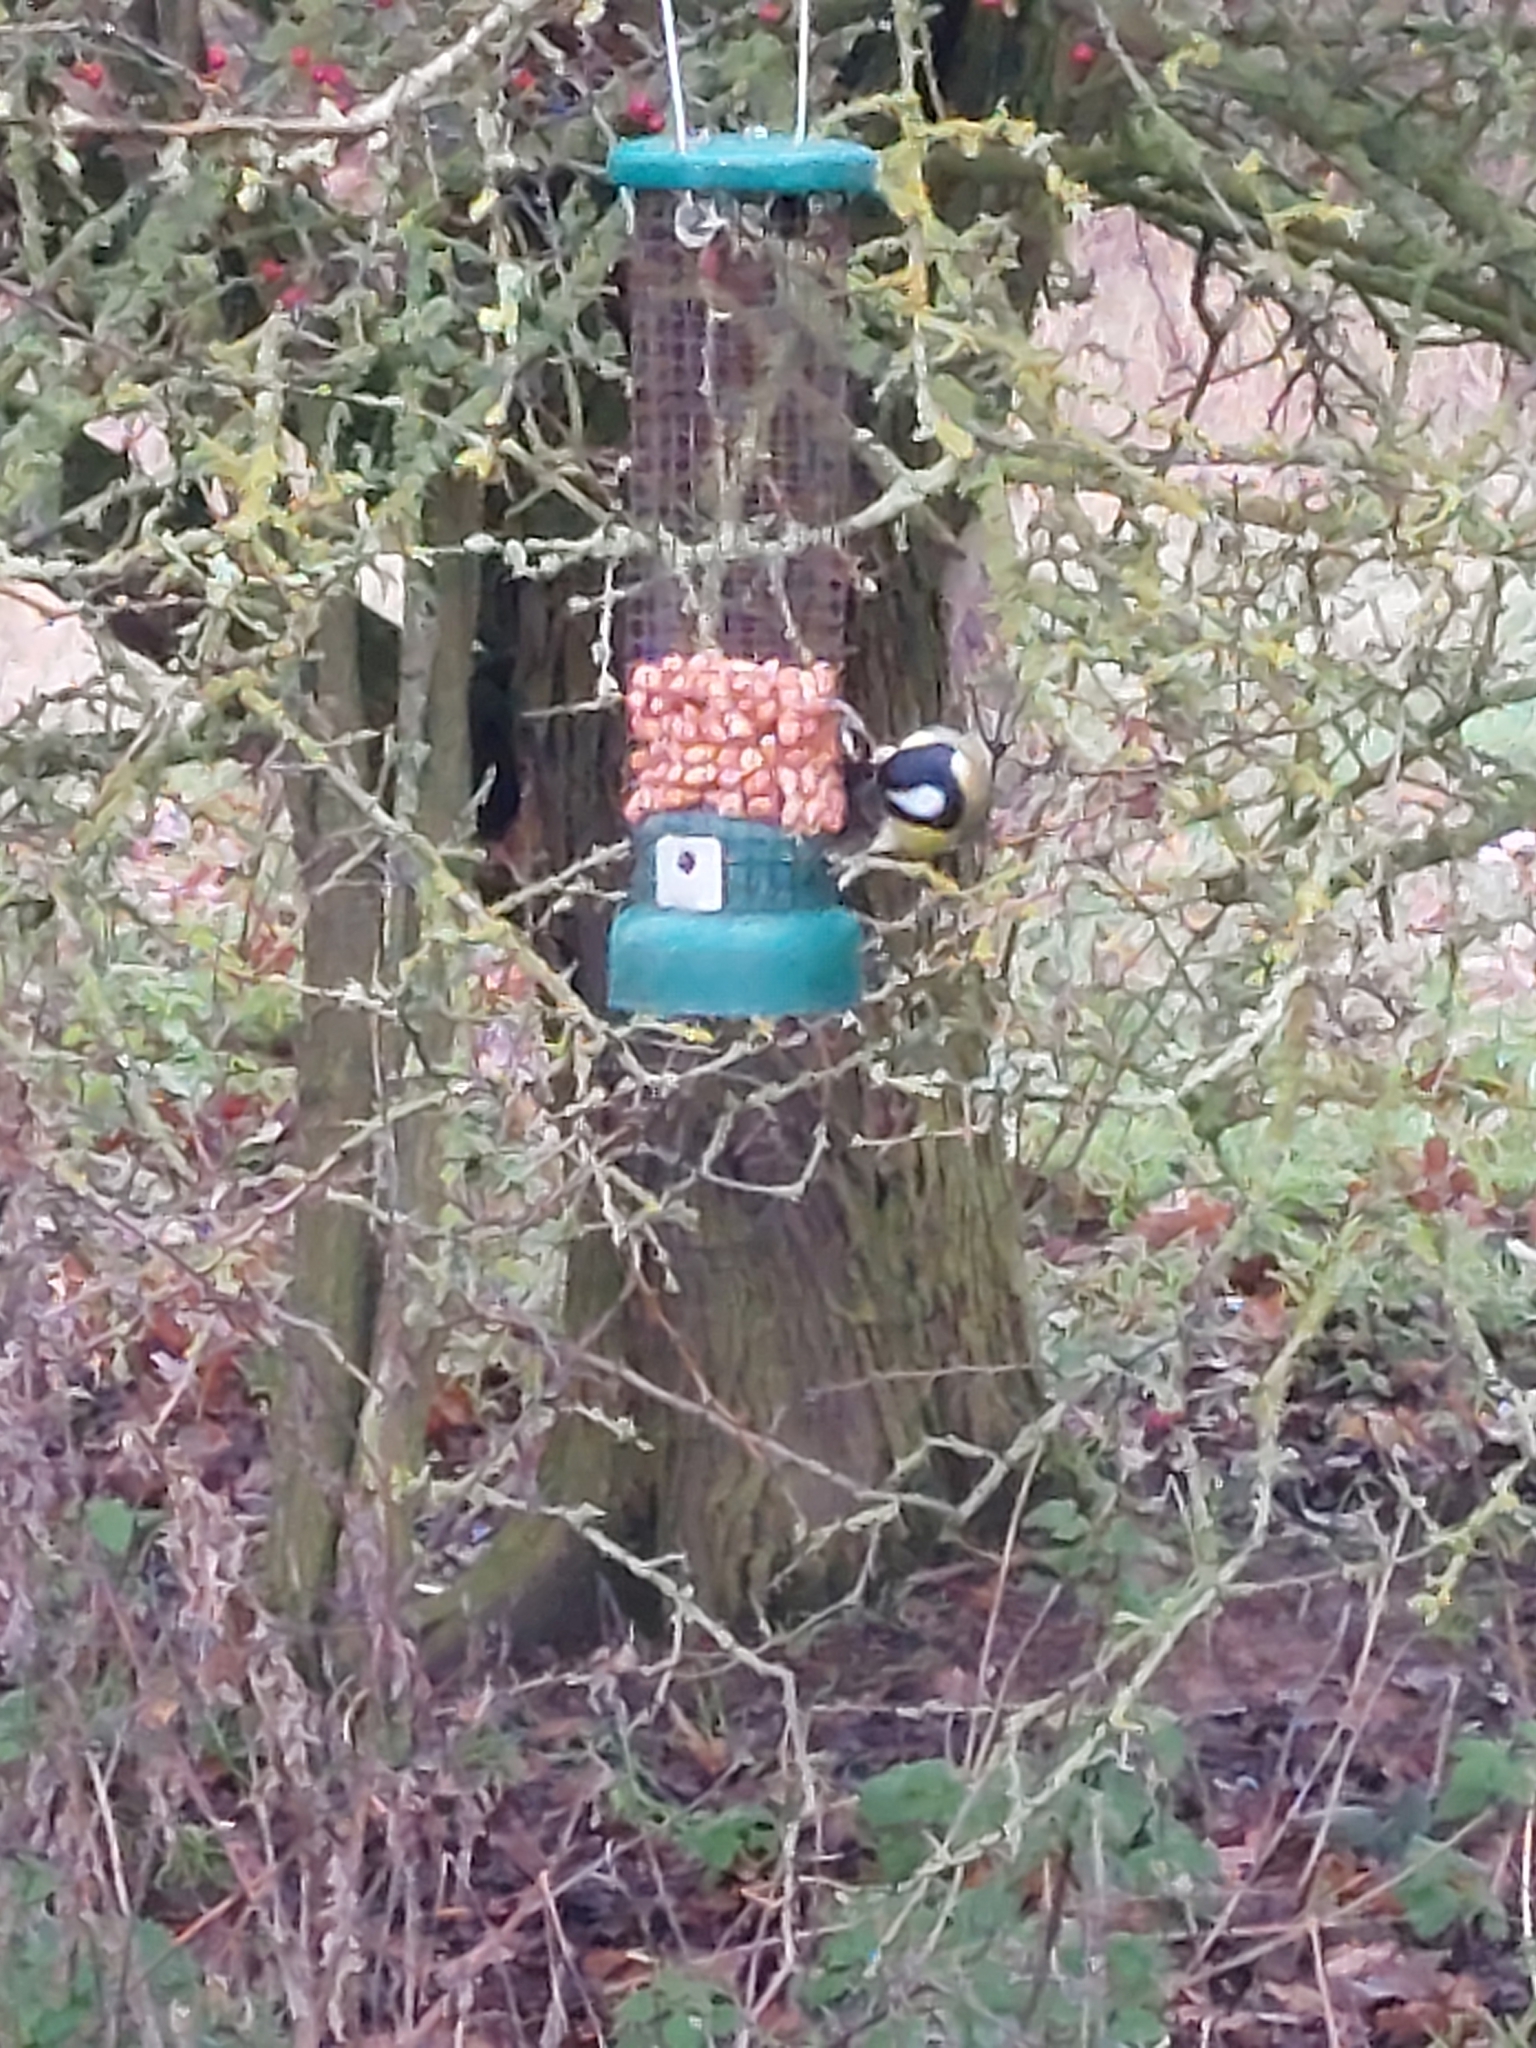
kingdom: Animalia
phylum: Chordata
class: Aves
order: Passeriformes
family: Paridae
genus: Parus
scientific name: Parus major
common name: Great tit
